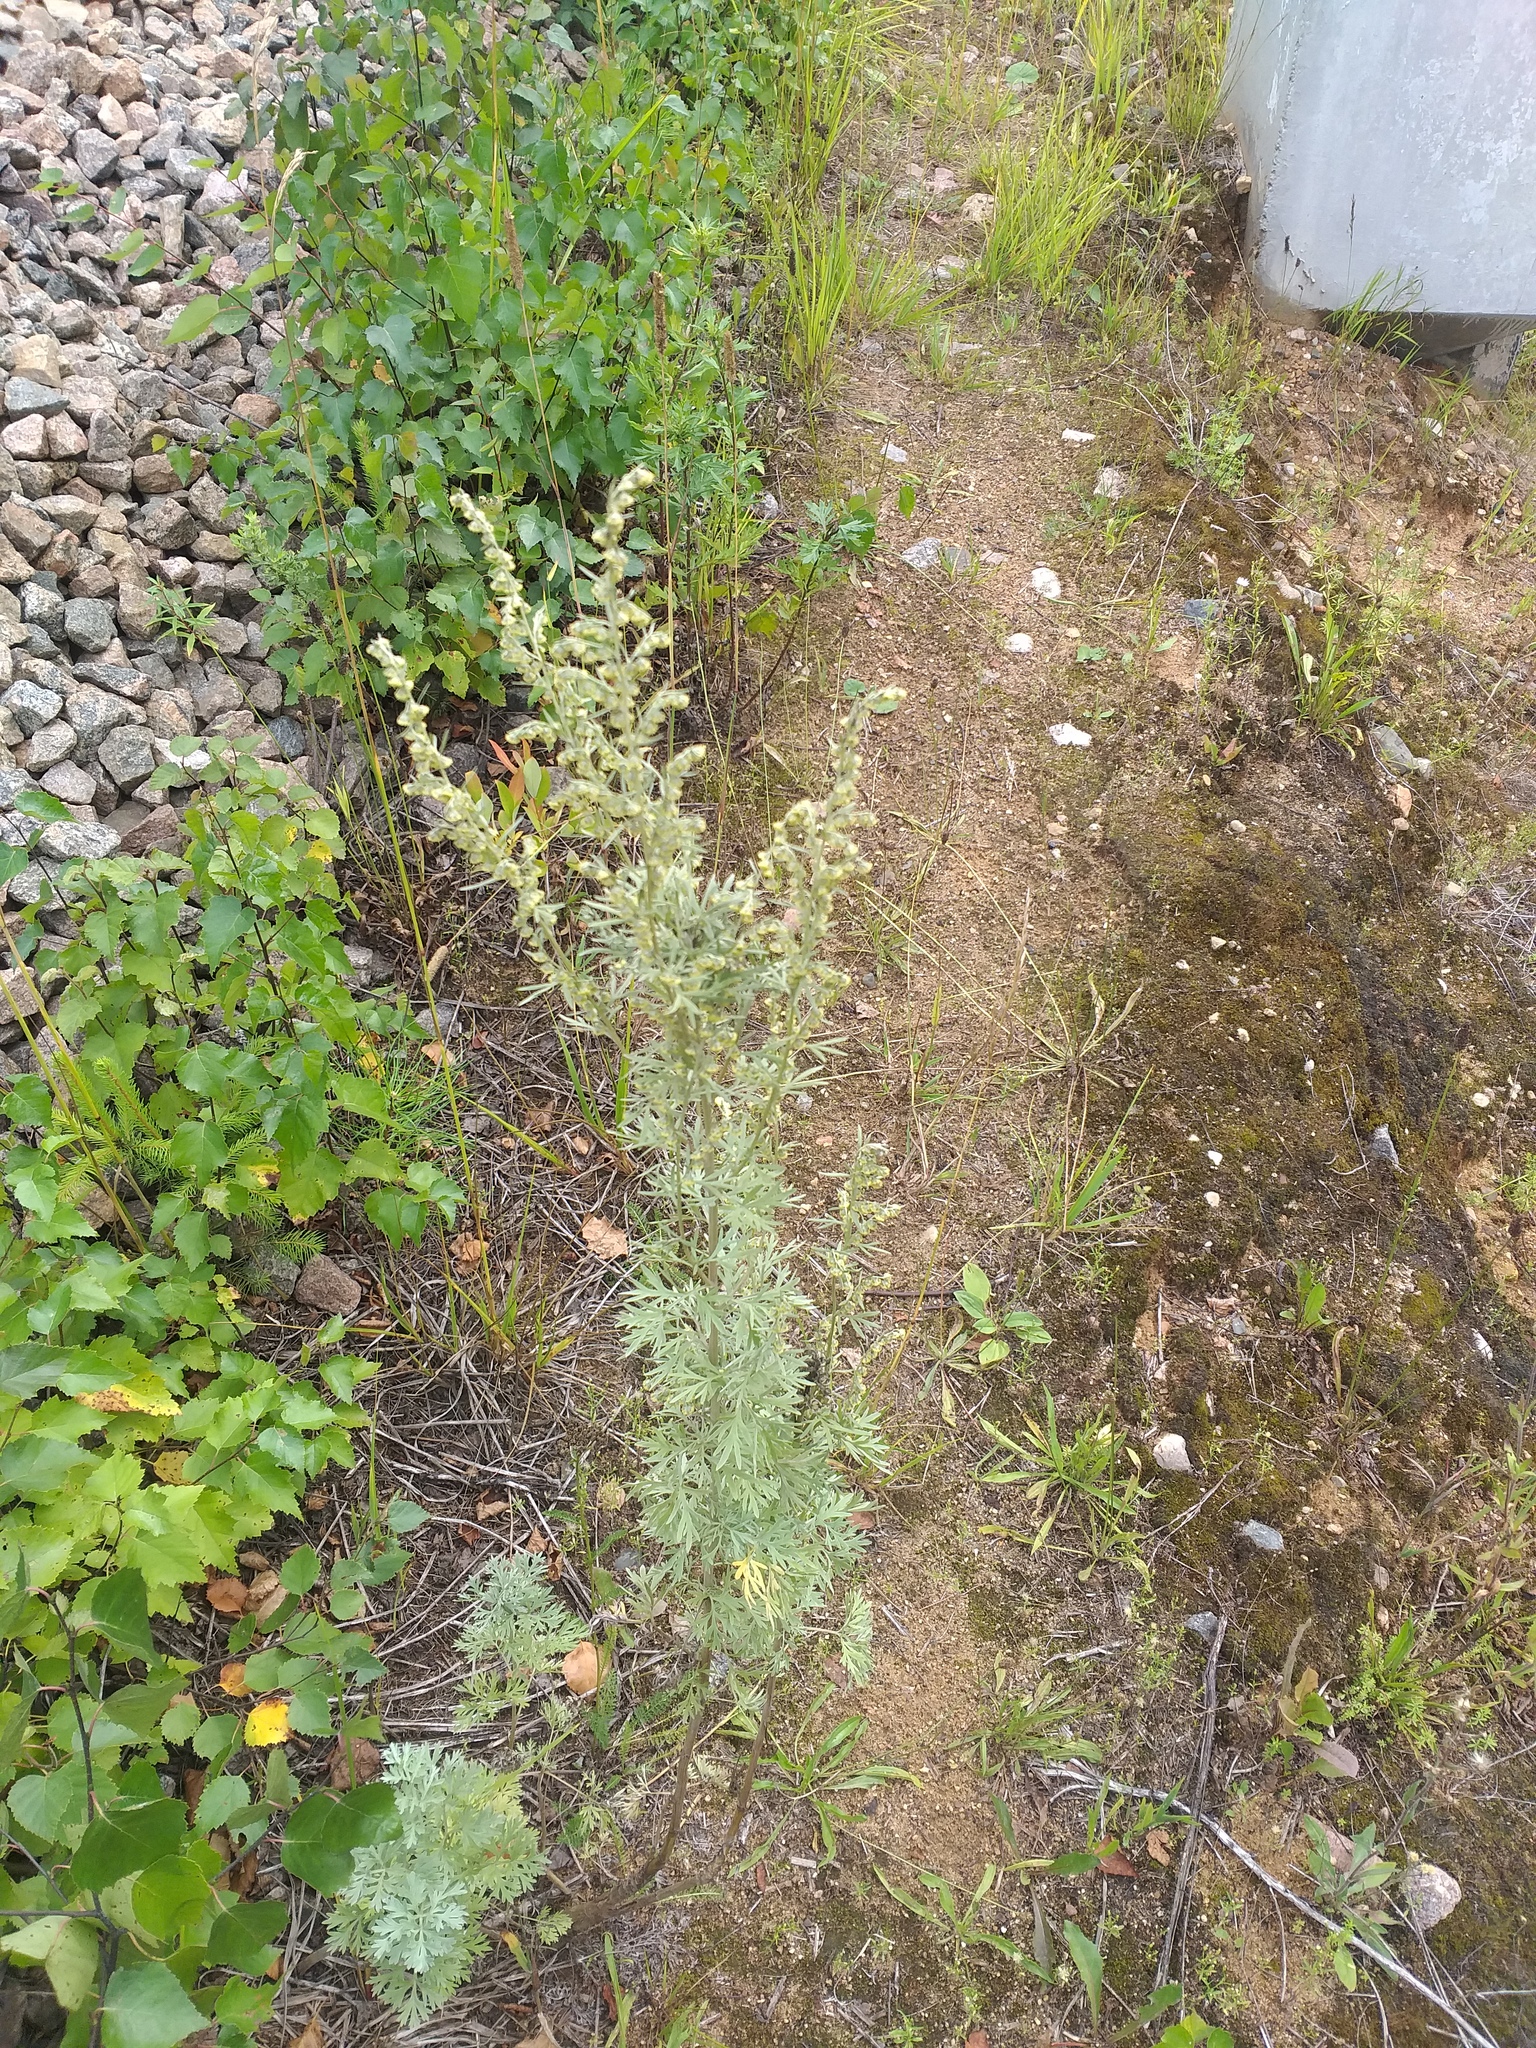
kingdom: Plantae
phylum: Tracheophyta
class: Magnoliopsida
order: Asterales
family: Asteraceae
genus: Artemisia
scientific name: Artemisia absinthium
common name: Wormwood
